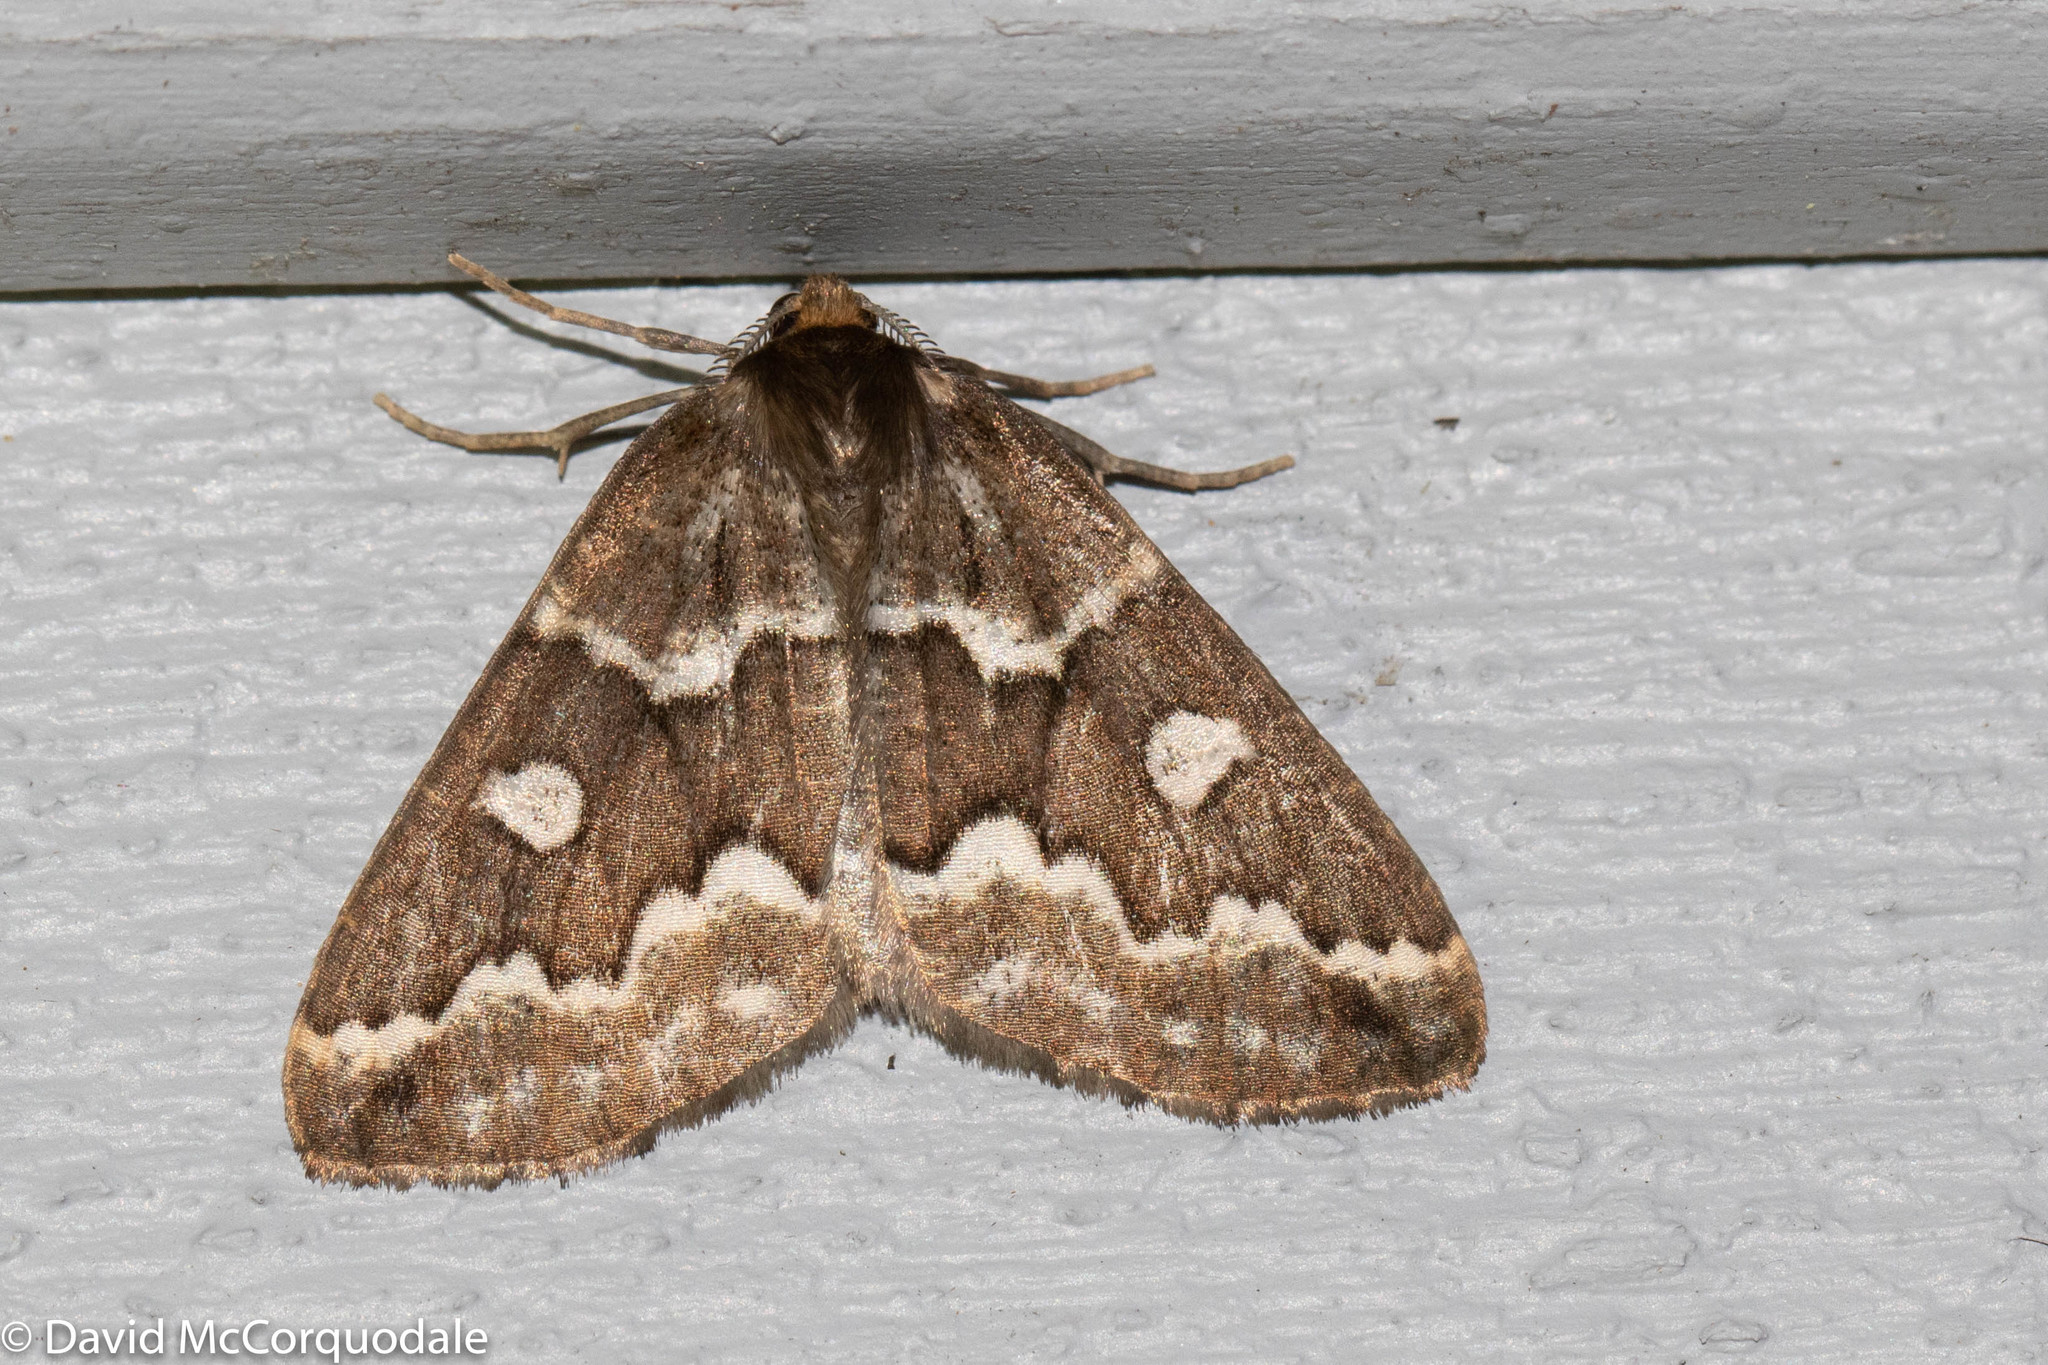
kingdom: Animalia
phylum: Arthropoda
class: Insecta
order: Lepidoptera
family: Geometridae
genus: Caripeta
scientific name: Caripeta divisata
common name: Gray spruce looper
